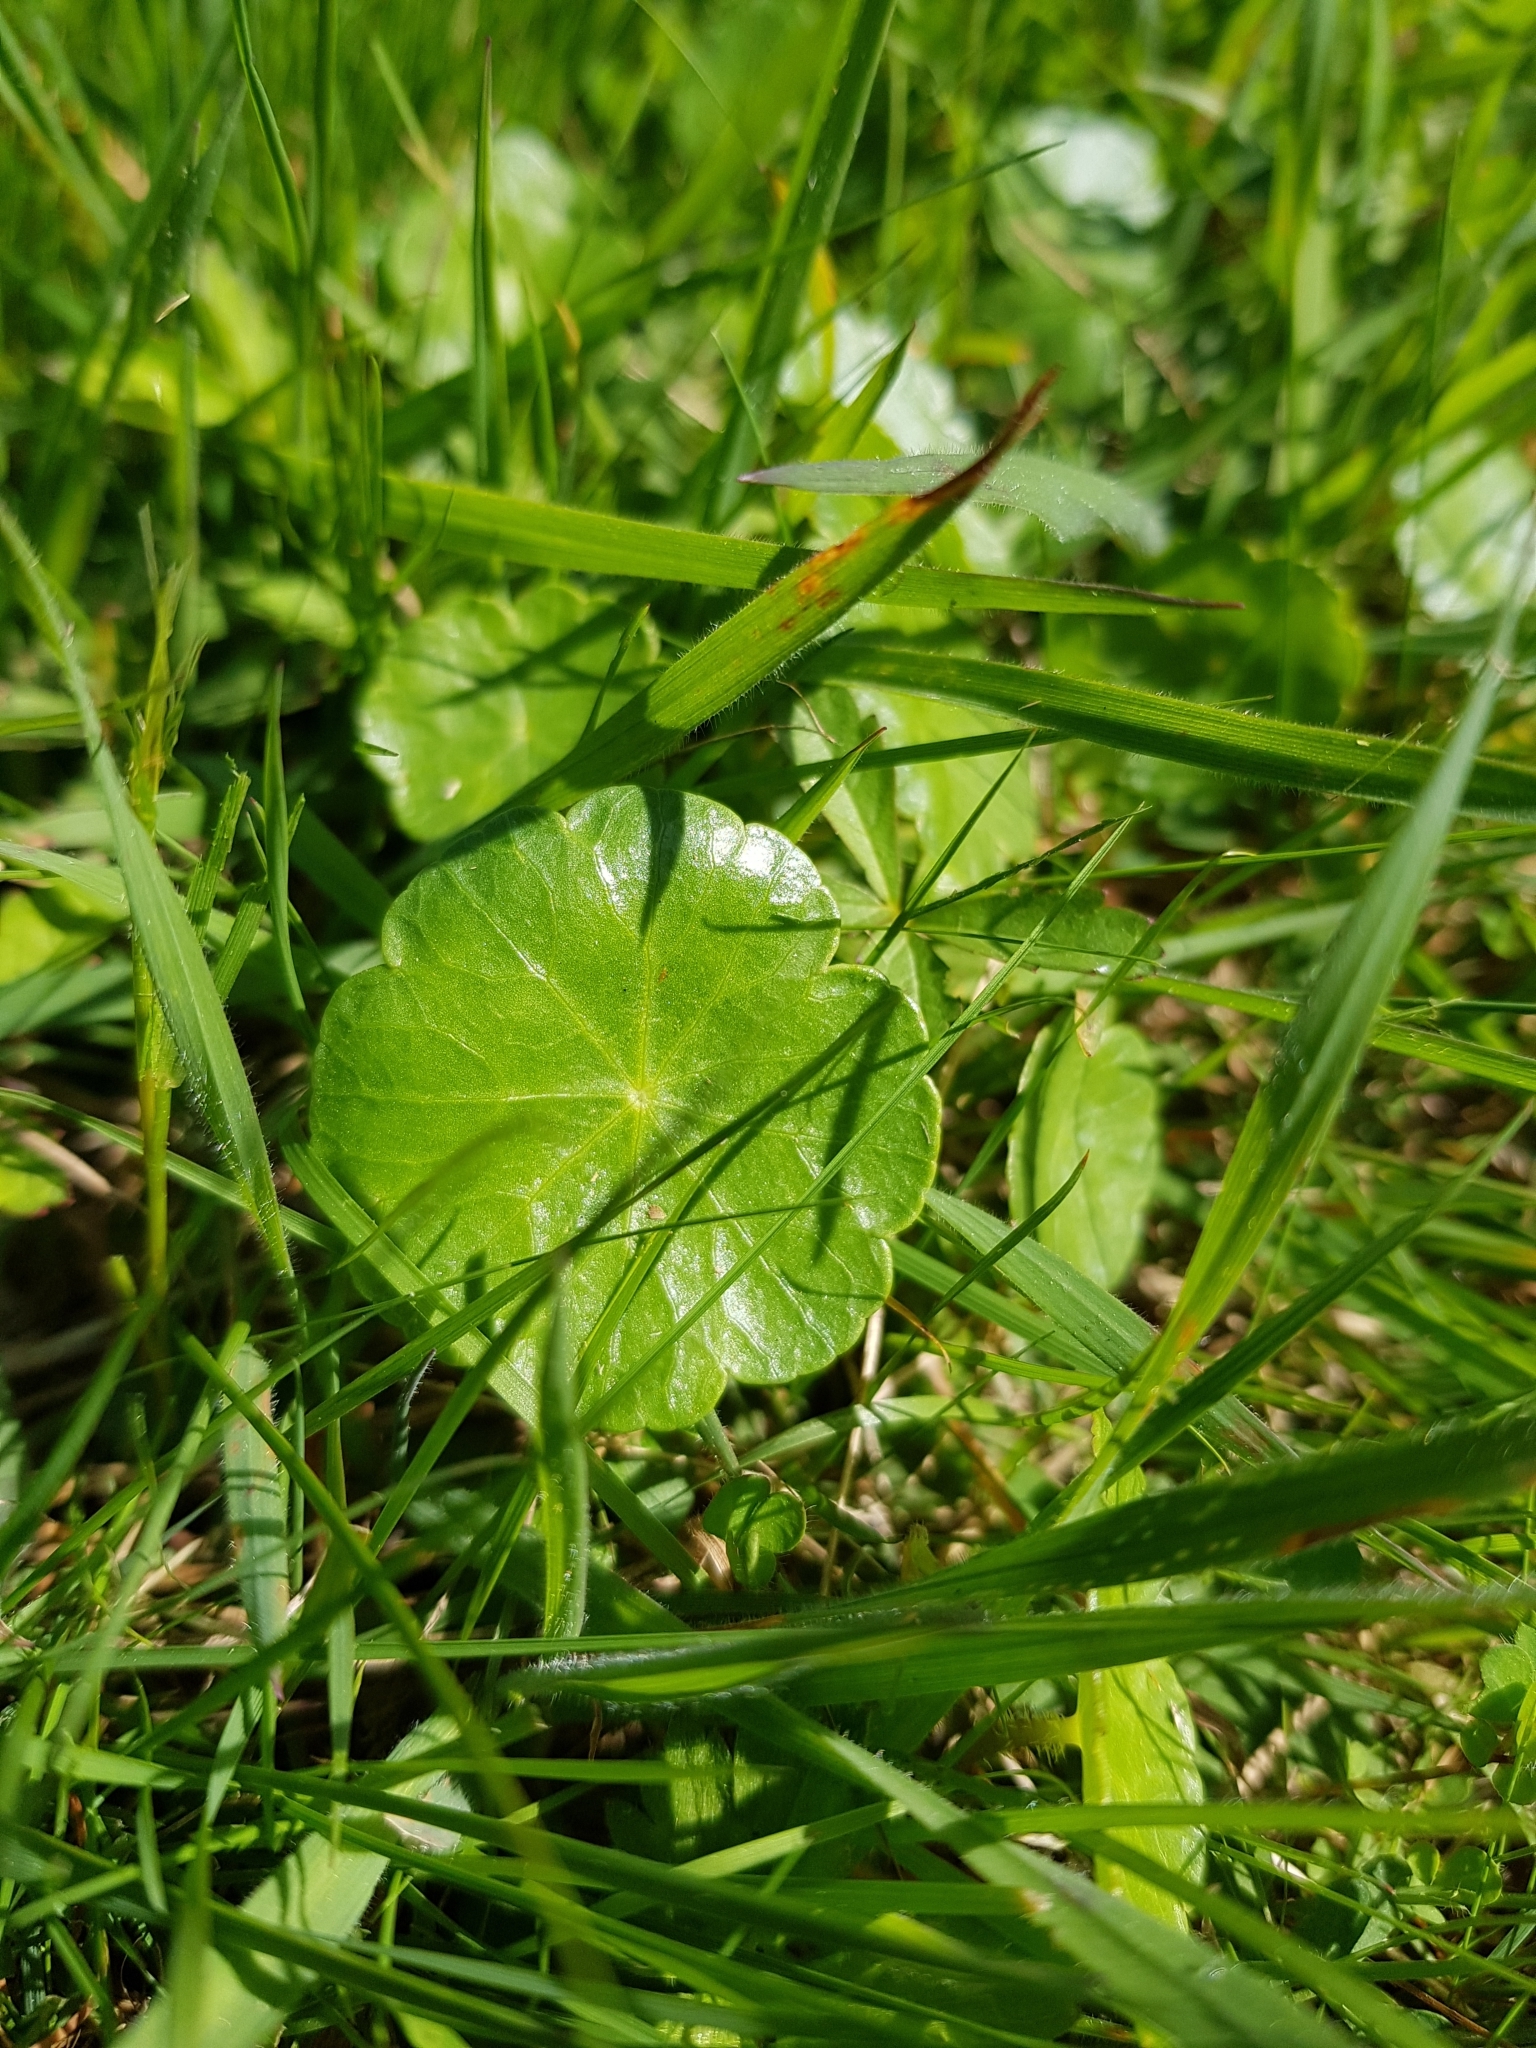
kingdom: Plantae
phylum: Tracheophyta
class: Magnoliopsida
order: Apiales
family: Araliaceae
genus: Hydrocotyle
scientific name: Hydrocotyle vulgaris
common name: Marsh pennywort
